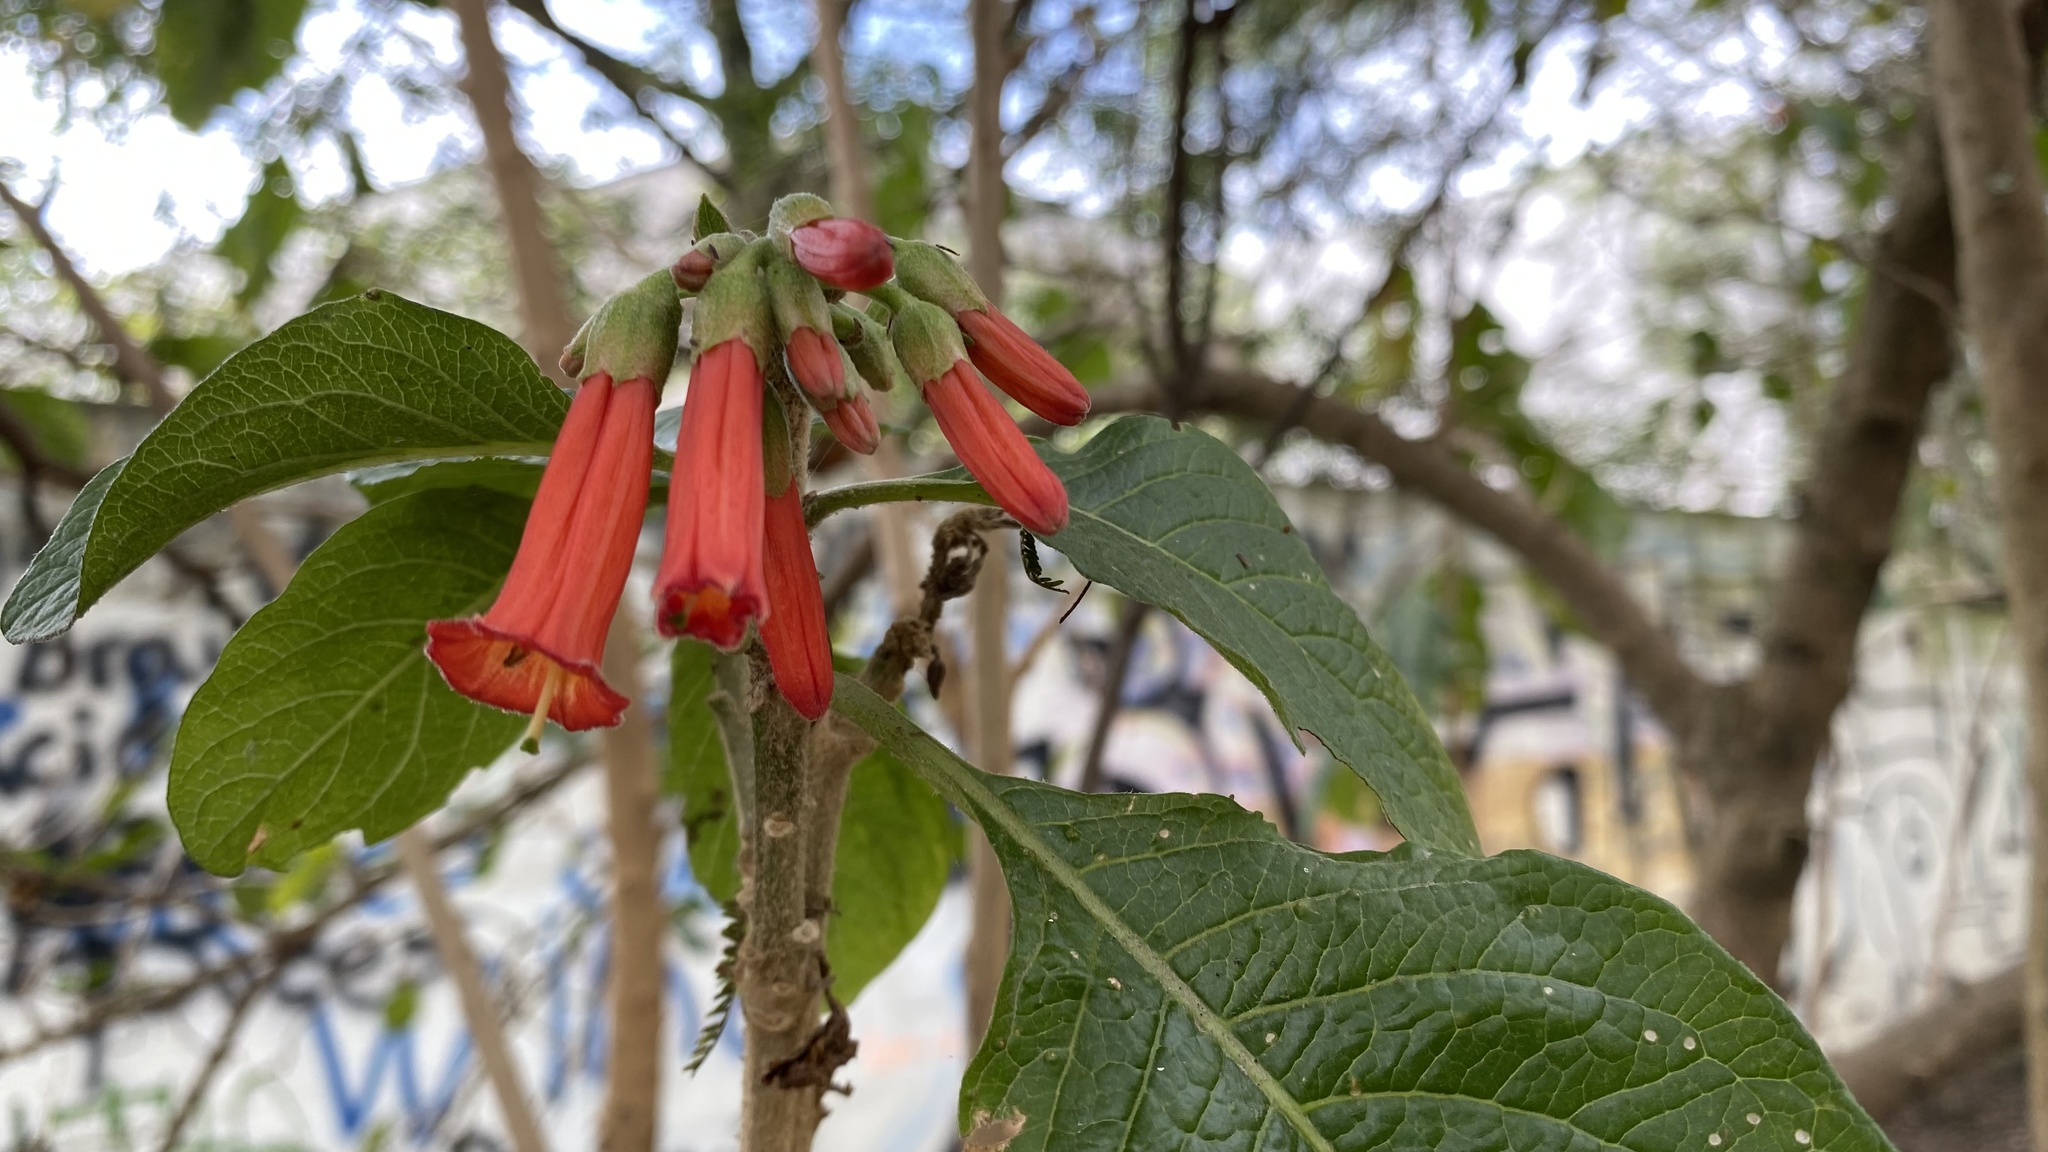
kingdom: Plantae
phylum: Tracheophyta
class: Magnoliopsida
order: Solanales
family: Solanaceae
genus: Iochroma
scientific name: Iochroma fuchsioides
